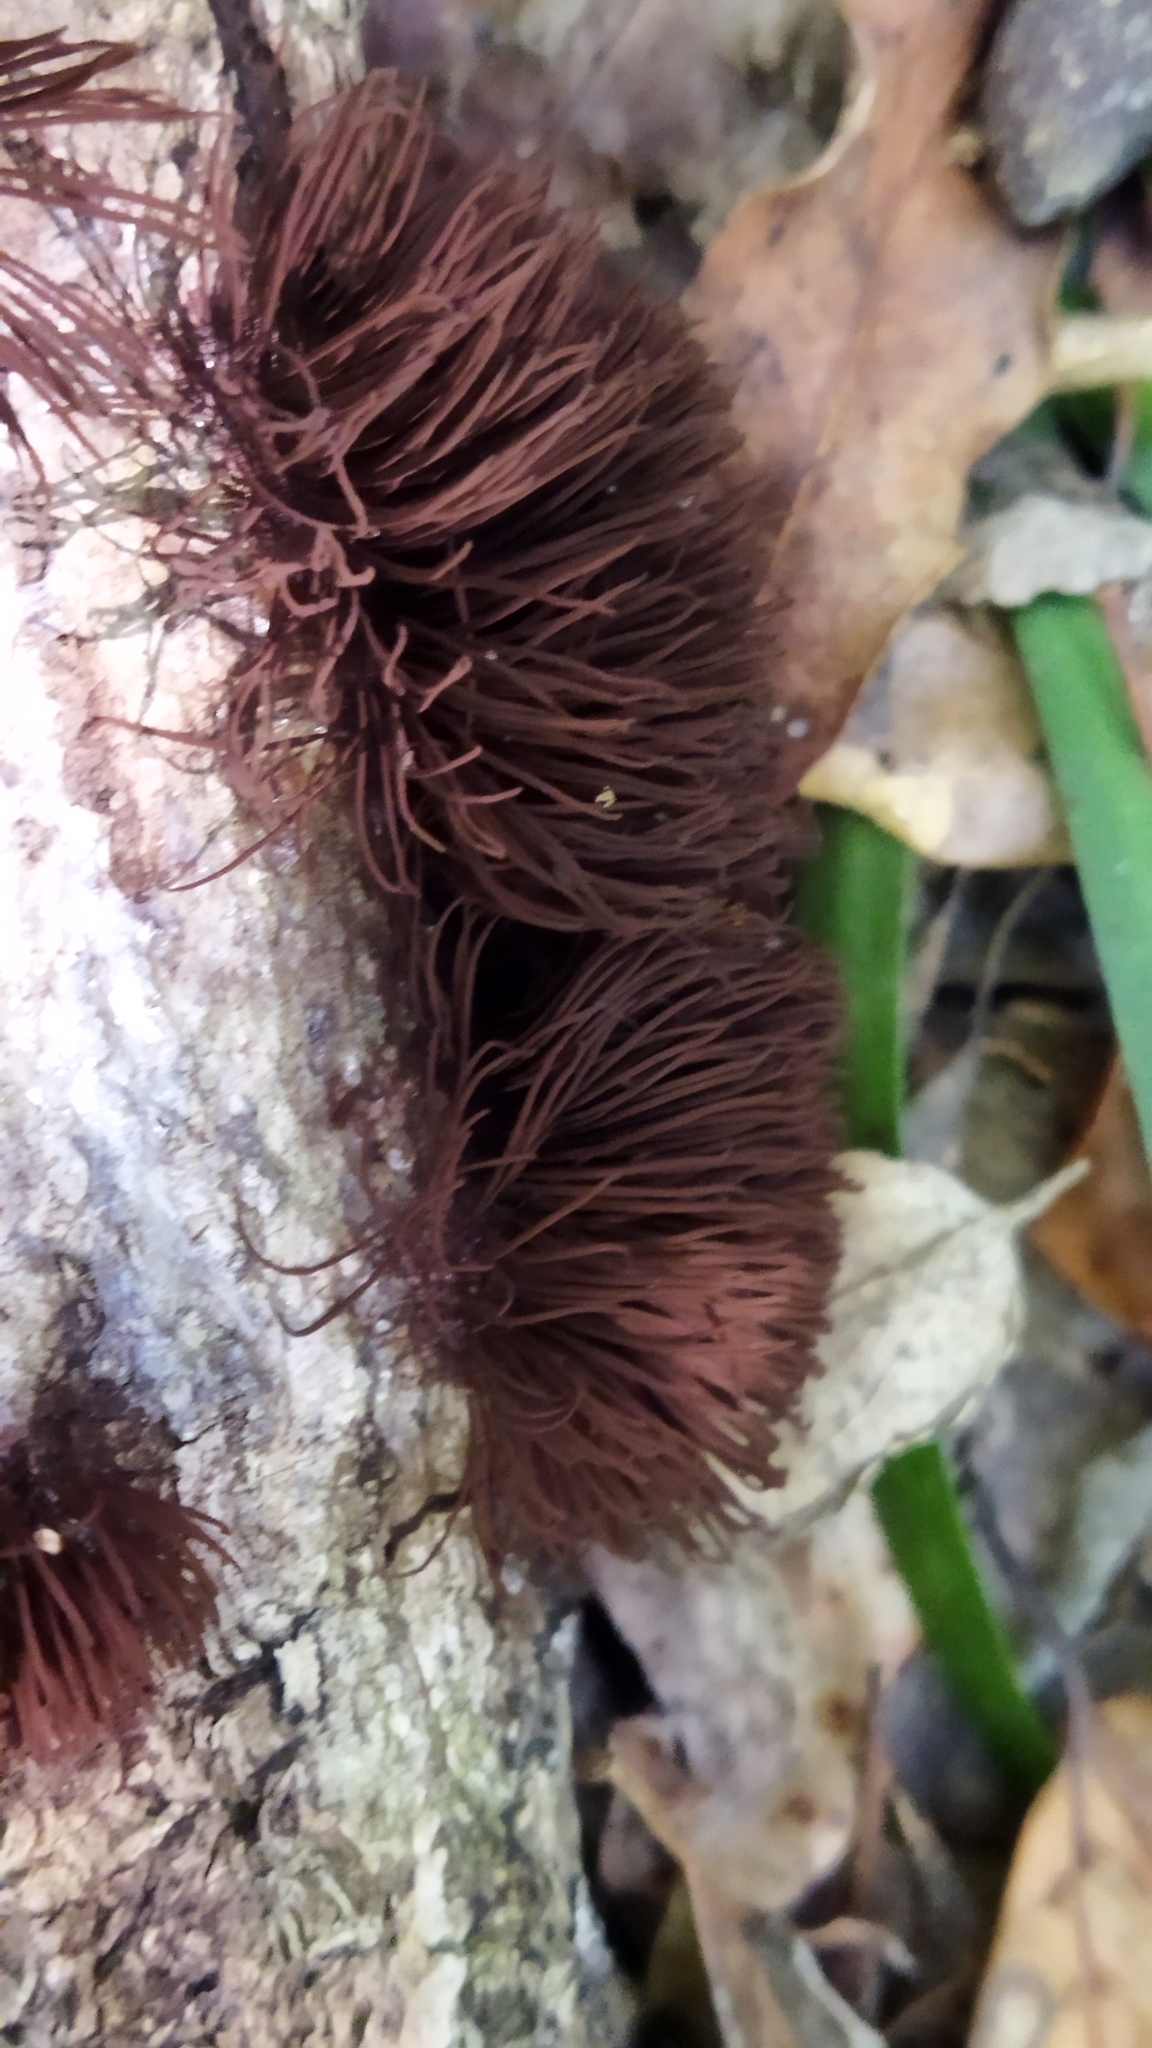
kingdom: Protozoa
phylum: Mycetozoa
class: Myxomycetes
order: Stemonitidales
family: Stemonitidaceae
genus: Stemonitis
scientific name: Stemonitis splendens
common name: Chocolate tube slime
